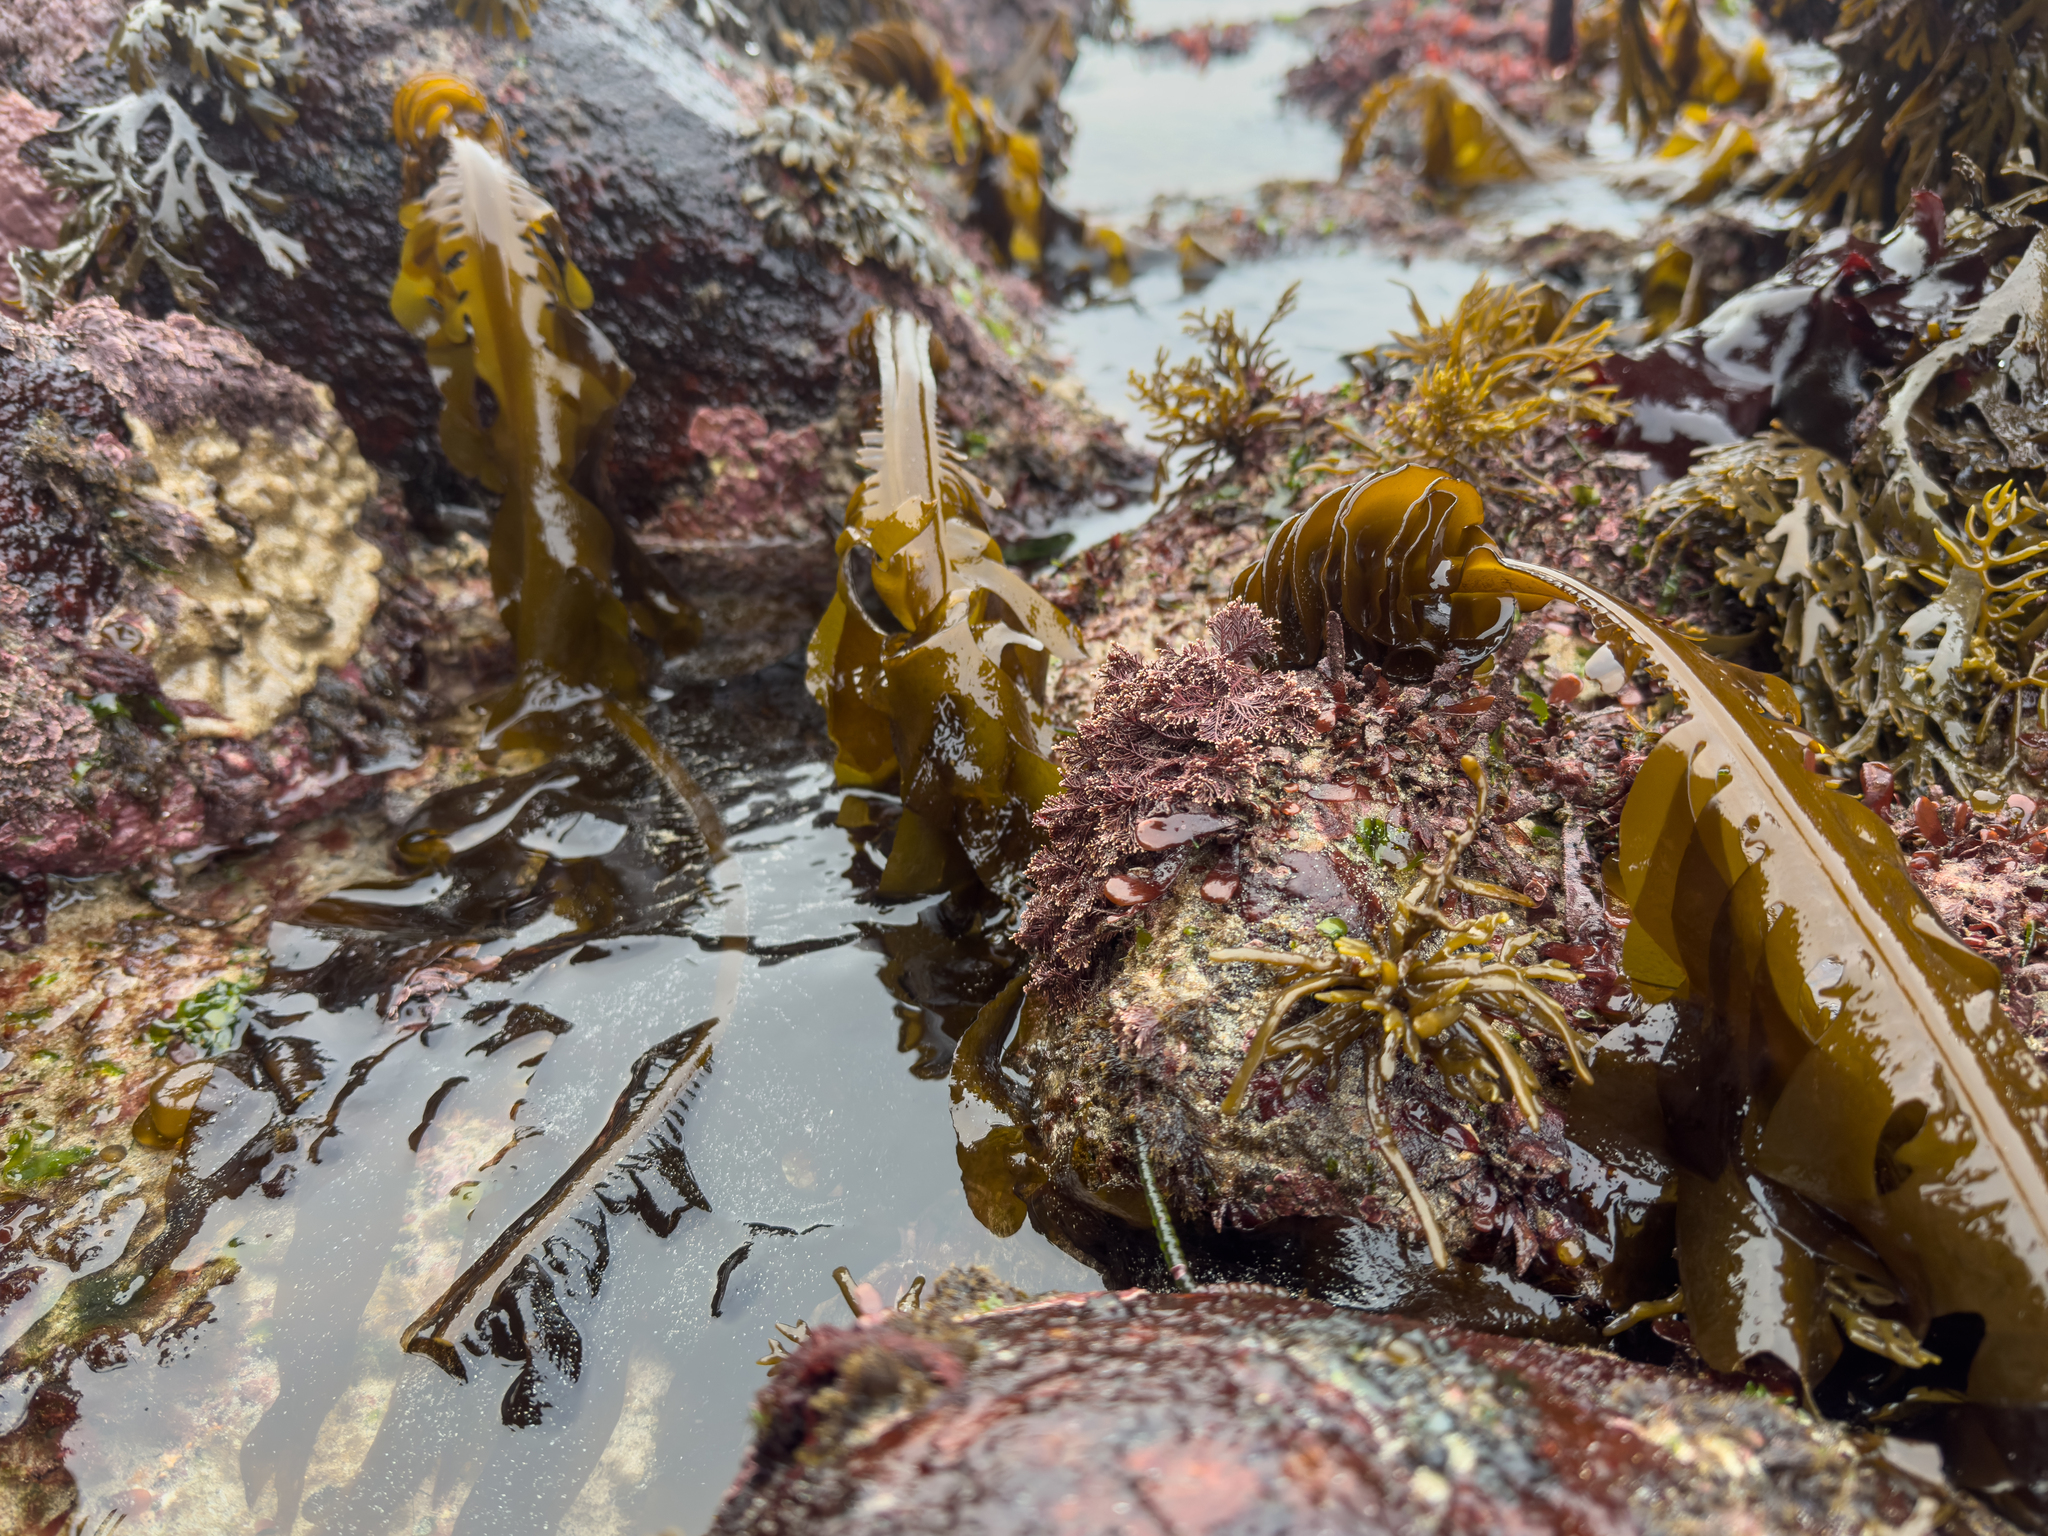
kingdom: Chromista
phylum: Ochrophyta
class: Phaeophyceae
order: Laminariales
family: Alariaceae
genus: Undaria
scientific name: Undaria pinnatifida
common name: Asian kelp
